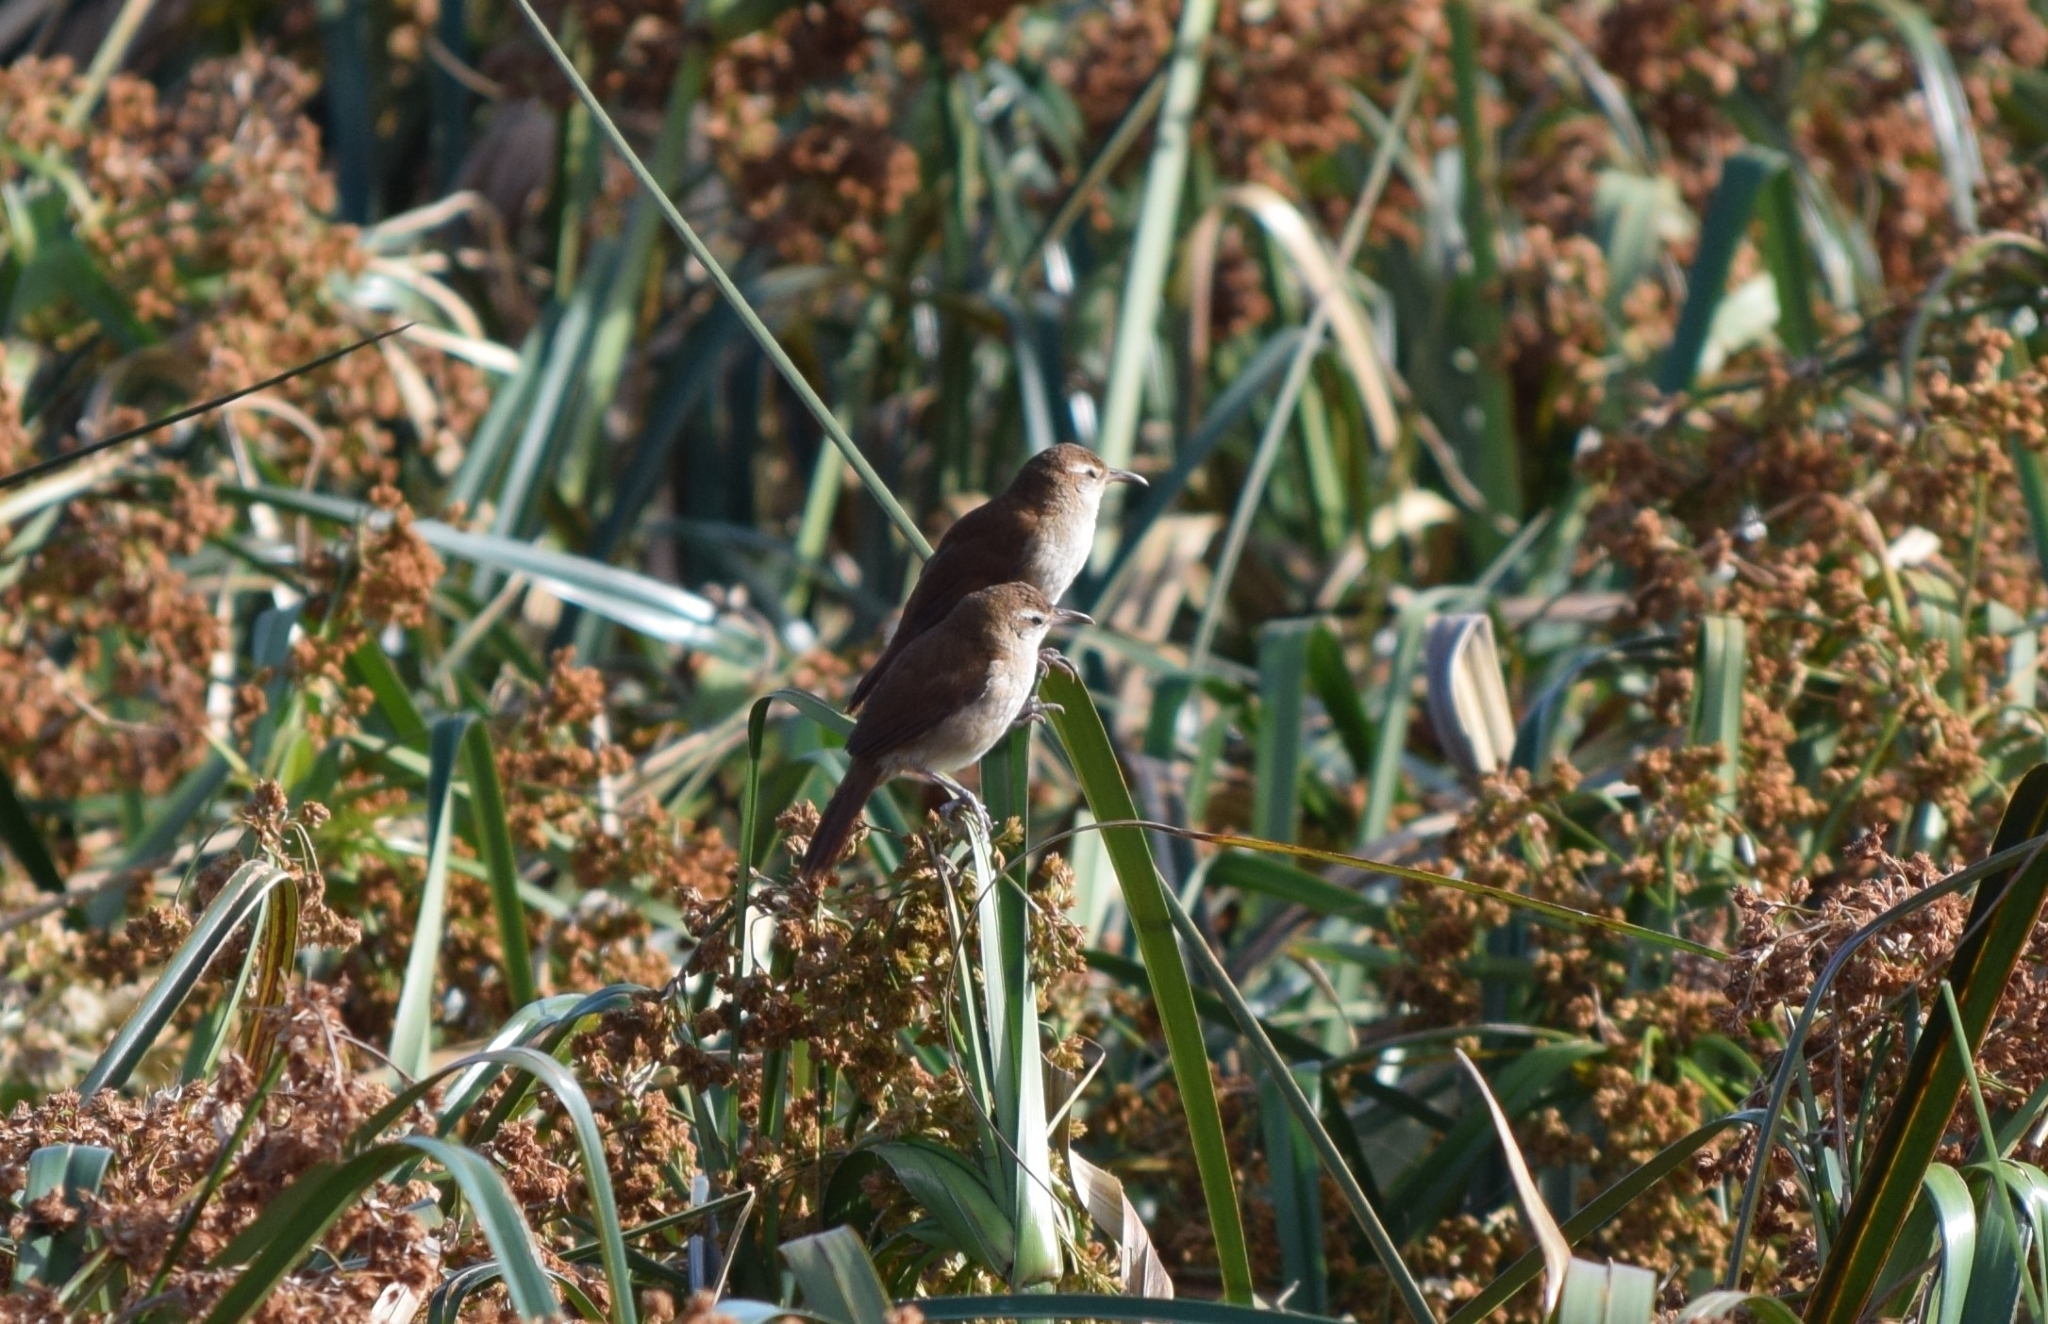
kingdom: Animalia
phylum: Chordata
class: Aves
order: Passeriformes
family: Furnariidae
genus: Limnornis
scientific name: Limnornis curvirostris
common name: Curve-billed reedhaunter
